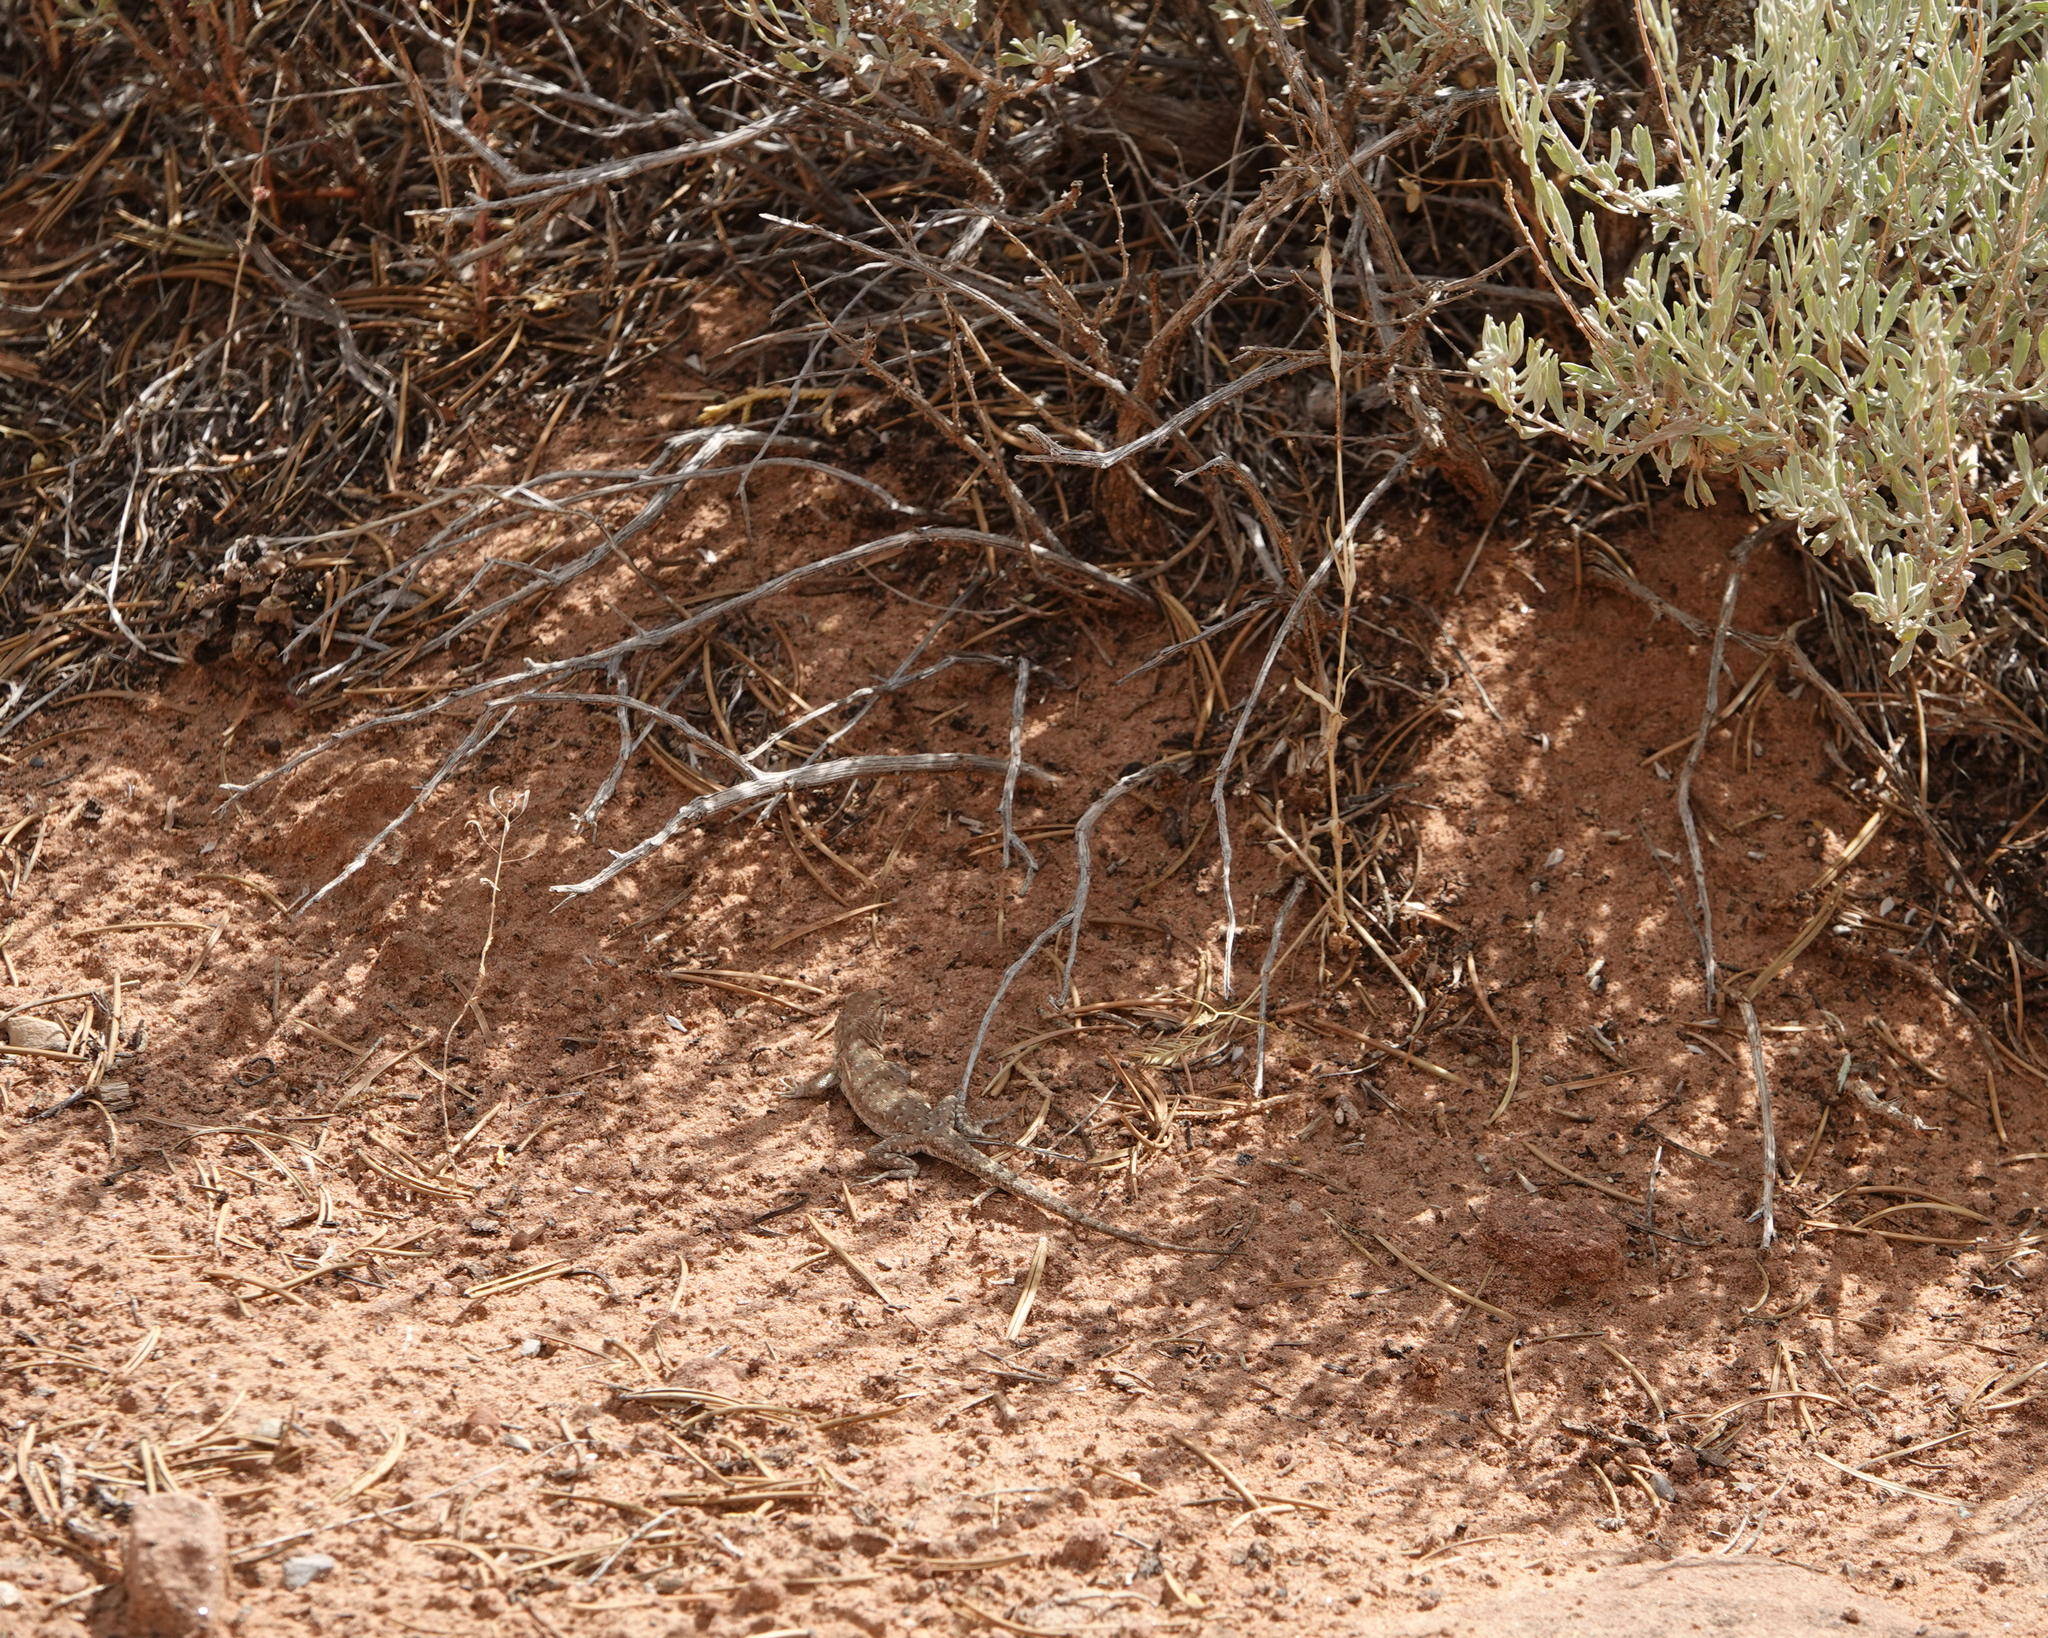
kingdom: Animalia
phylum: Chordata
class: Squamata
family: Phrynosomatidae
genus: Uta
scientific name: Uta stansburiana
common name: Side-blotched lizard
